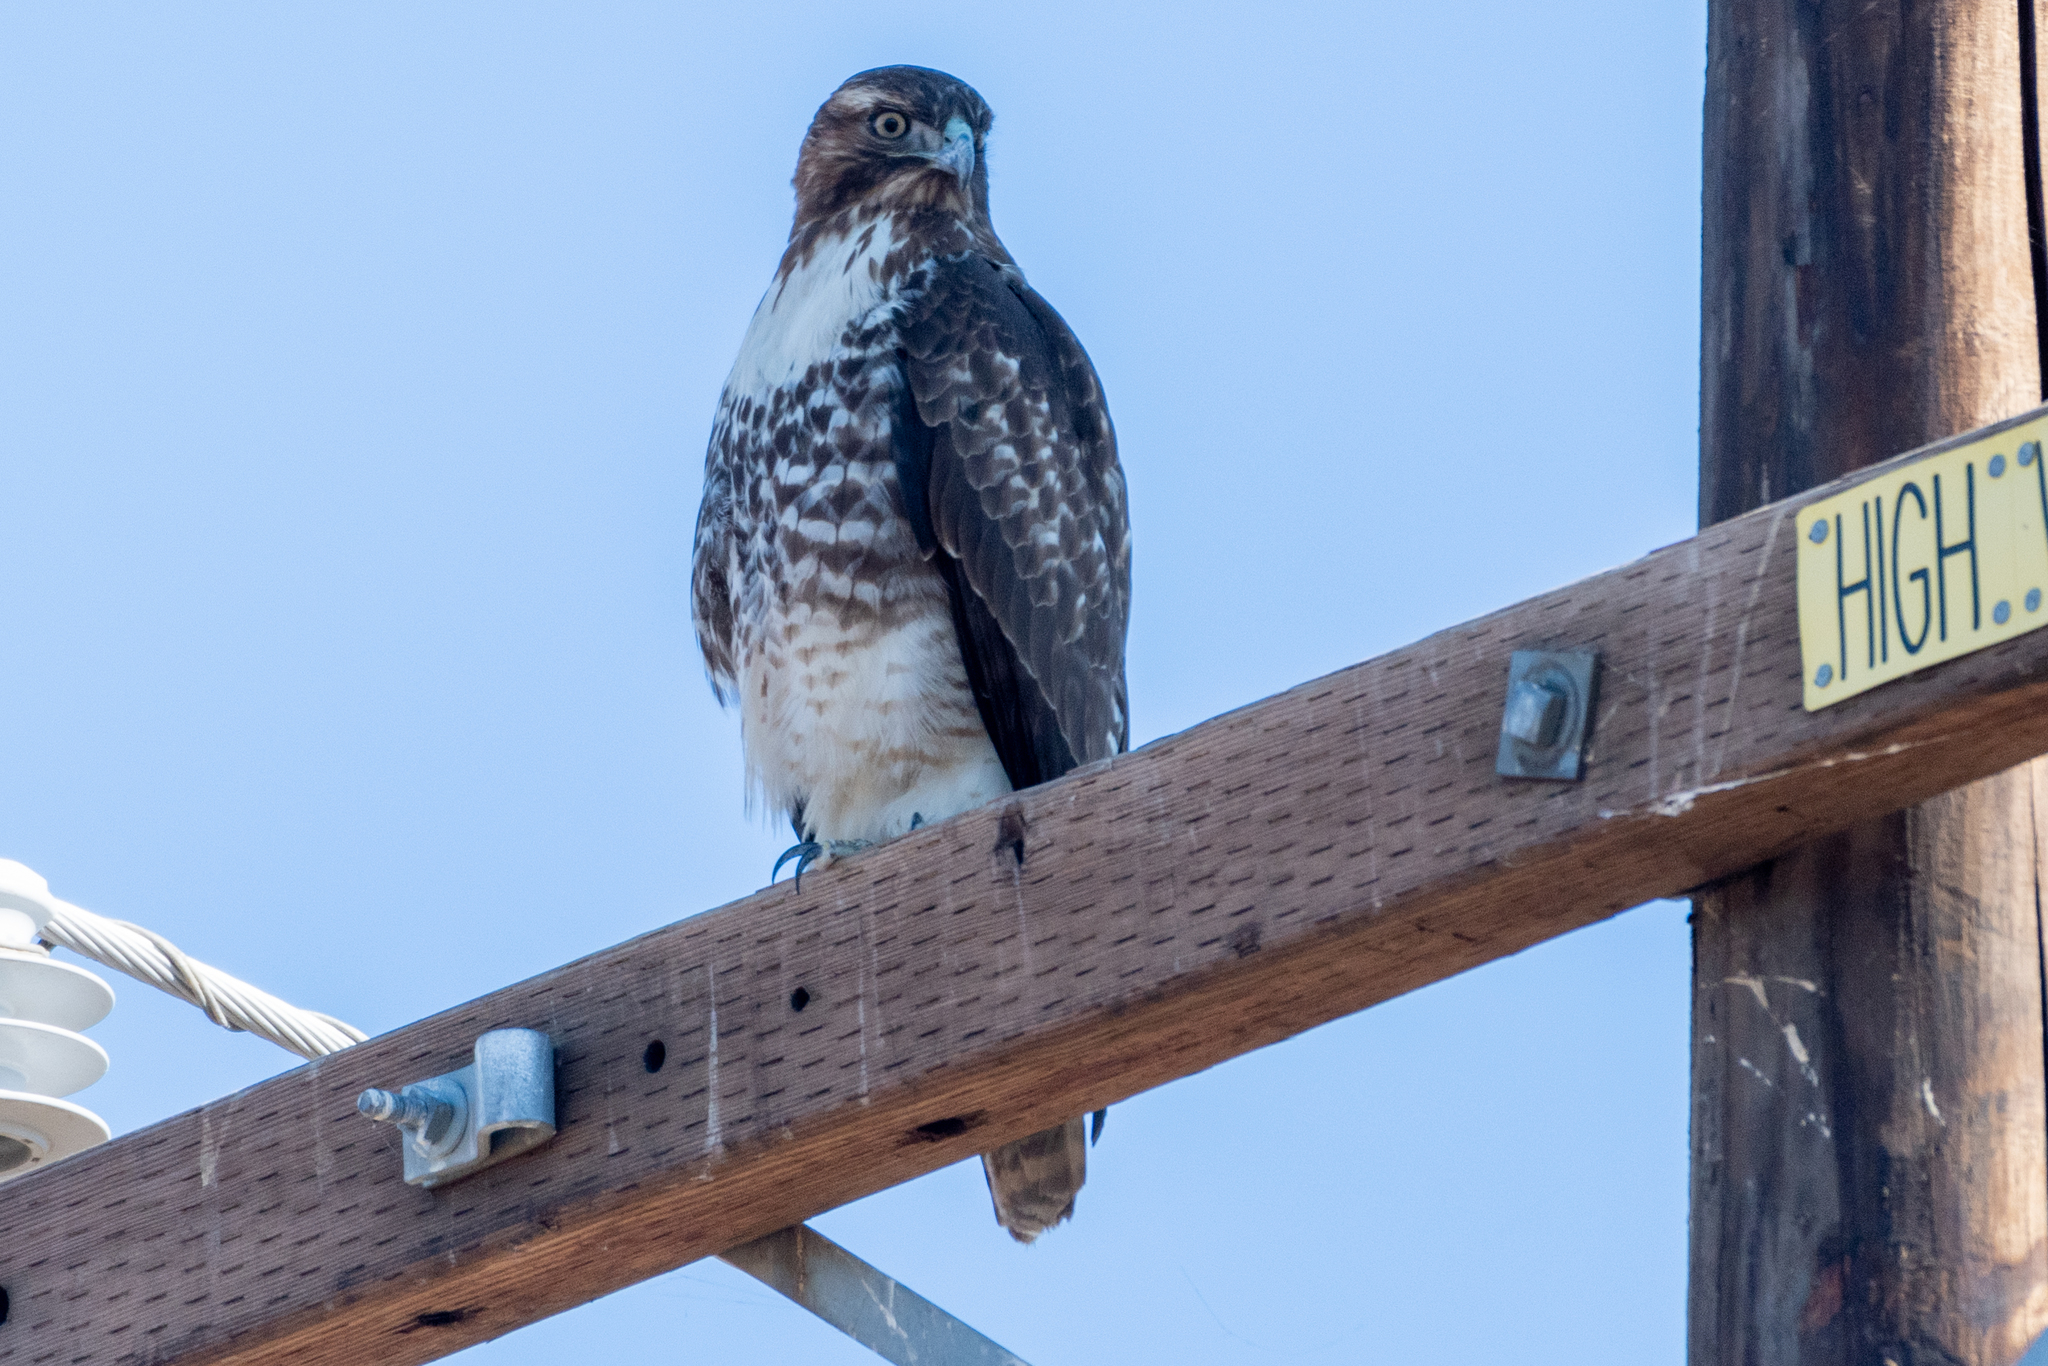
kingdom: Animalia
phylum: Chordata
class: Aves
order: Accipitriformes
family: Accipitridae
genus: Buteo
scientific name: Buteo jamaicensis
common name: Red-tailed hawk
